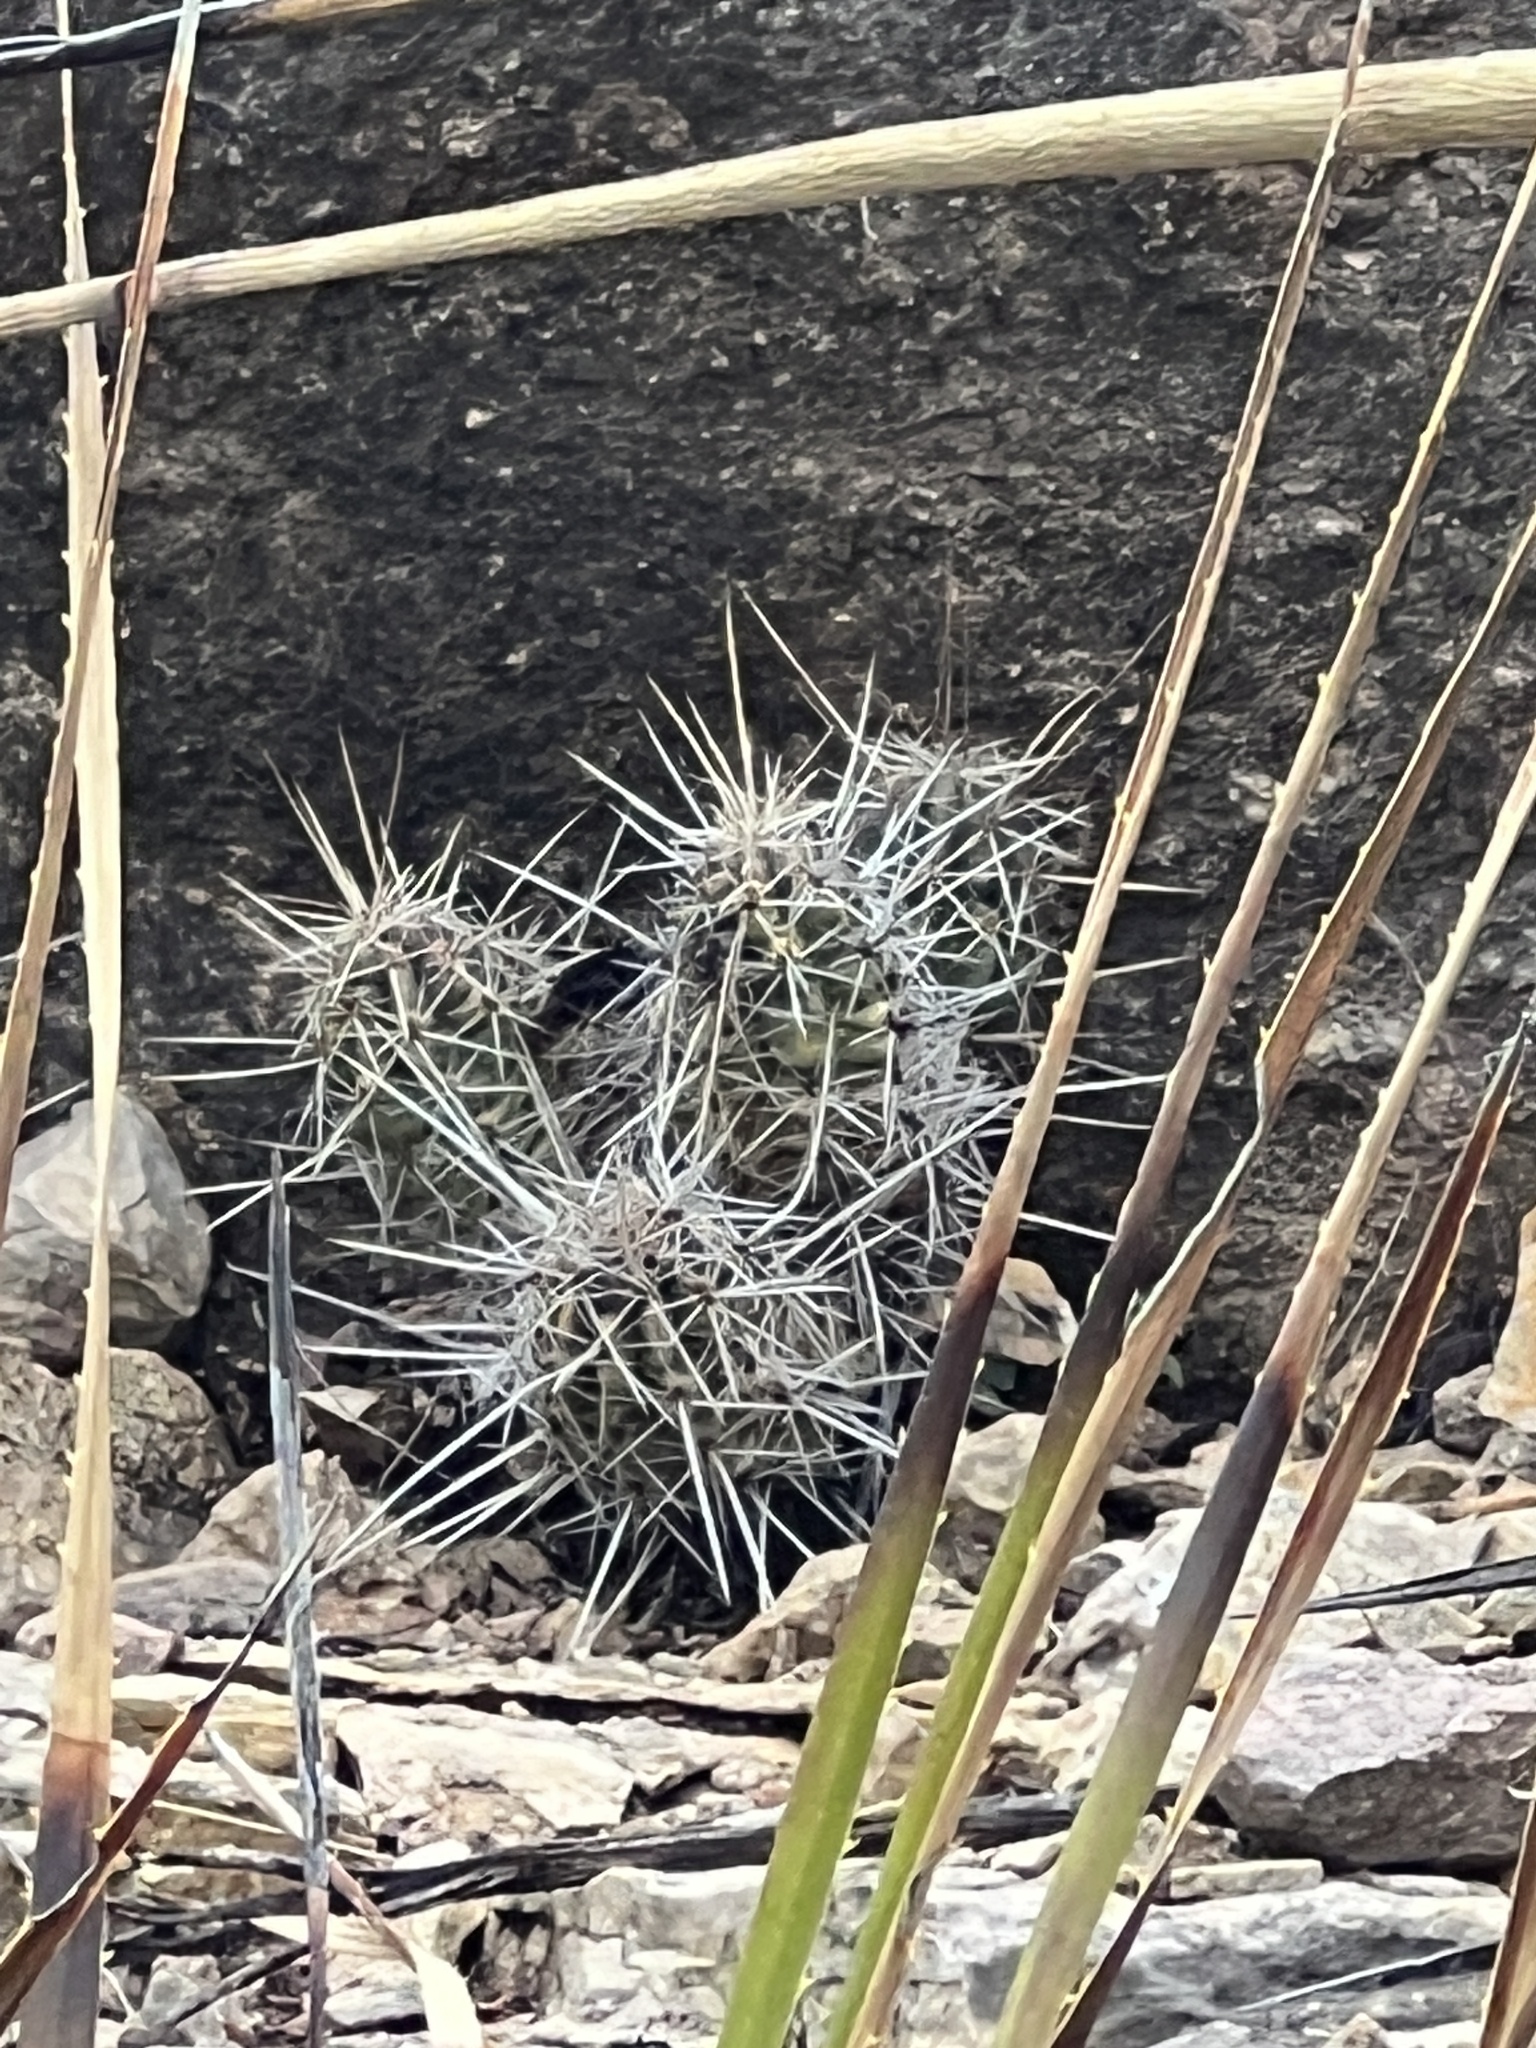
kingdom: Plantae
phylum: Tracheophyta
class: Magnoliopsida
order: Caryophyllales
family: Cactaceae
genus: Echinocereus
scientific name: Echinocereus enneacanthus
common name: Pitaya
